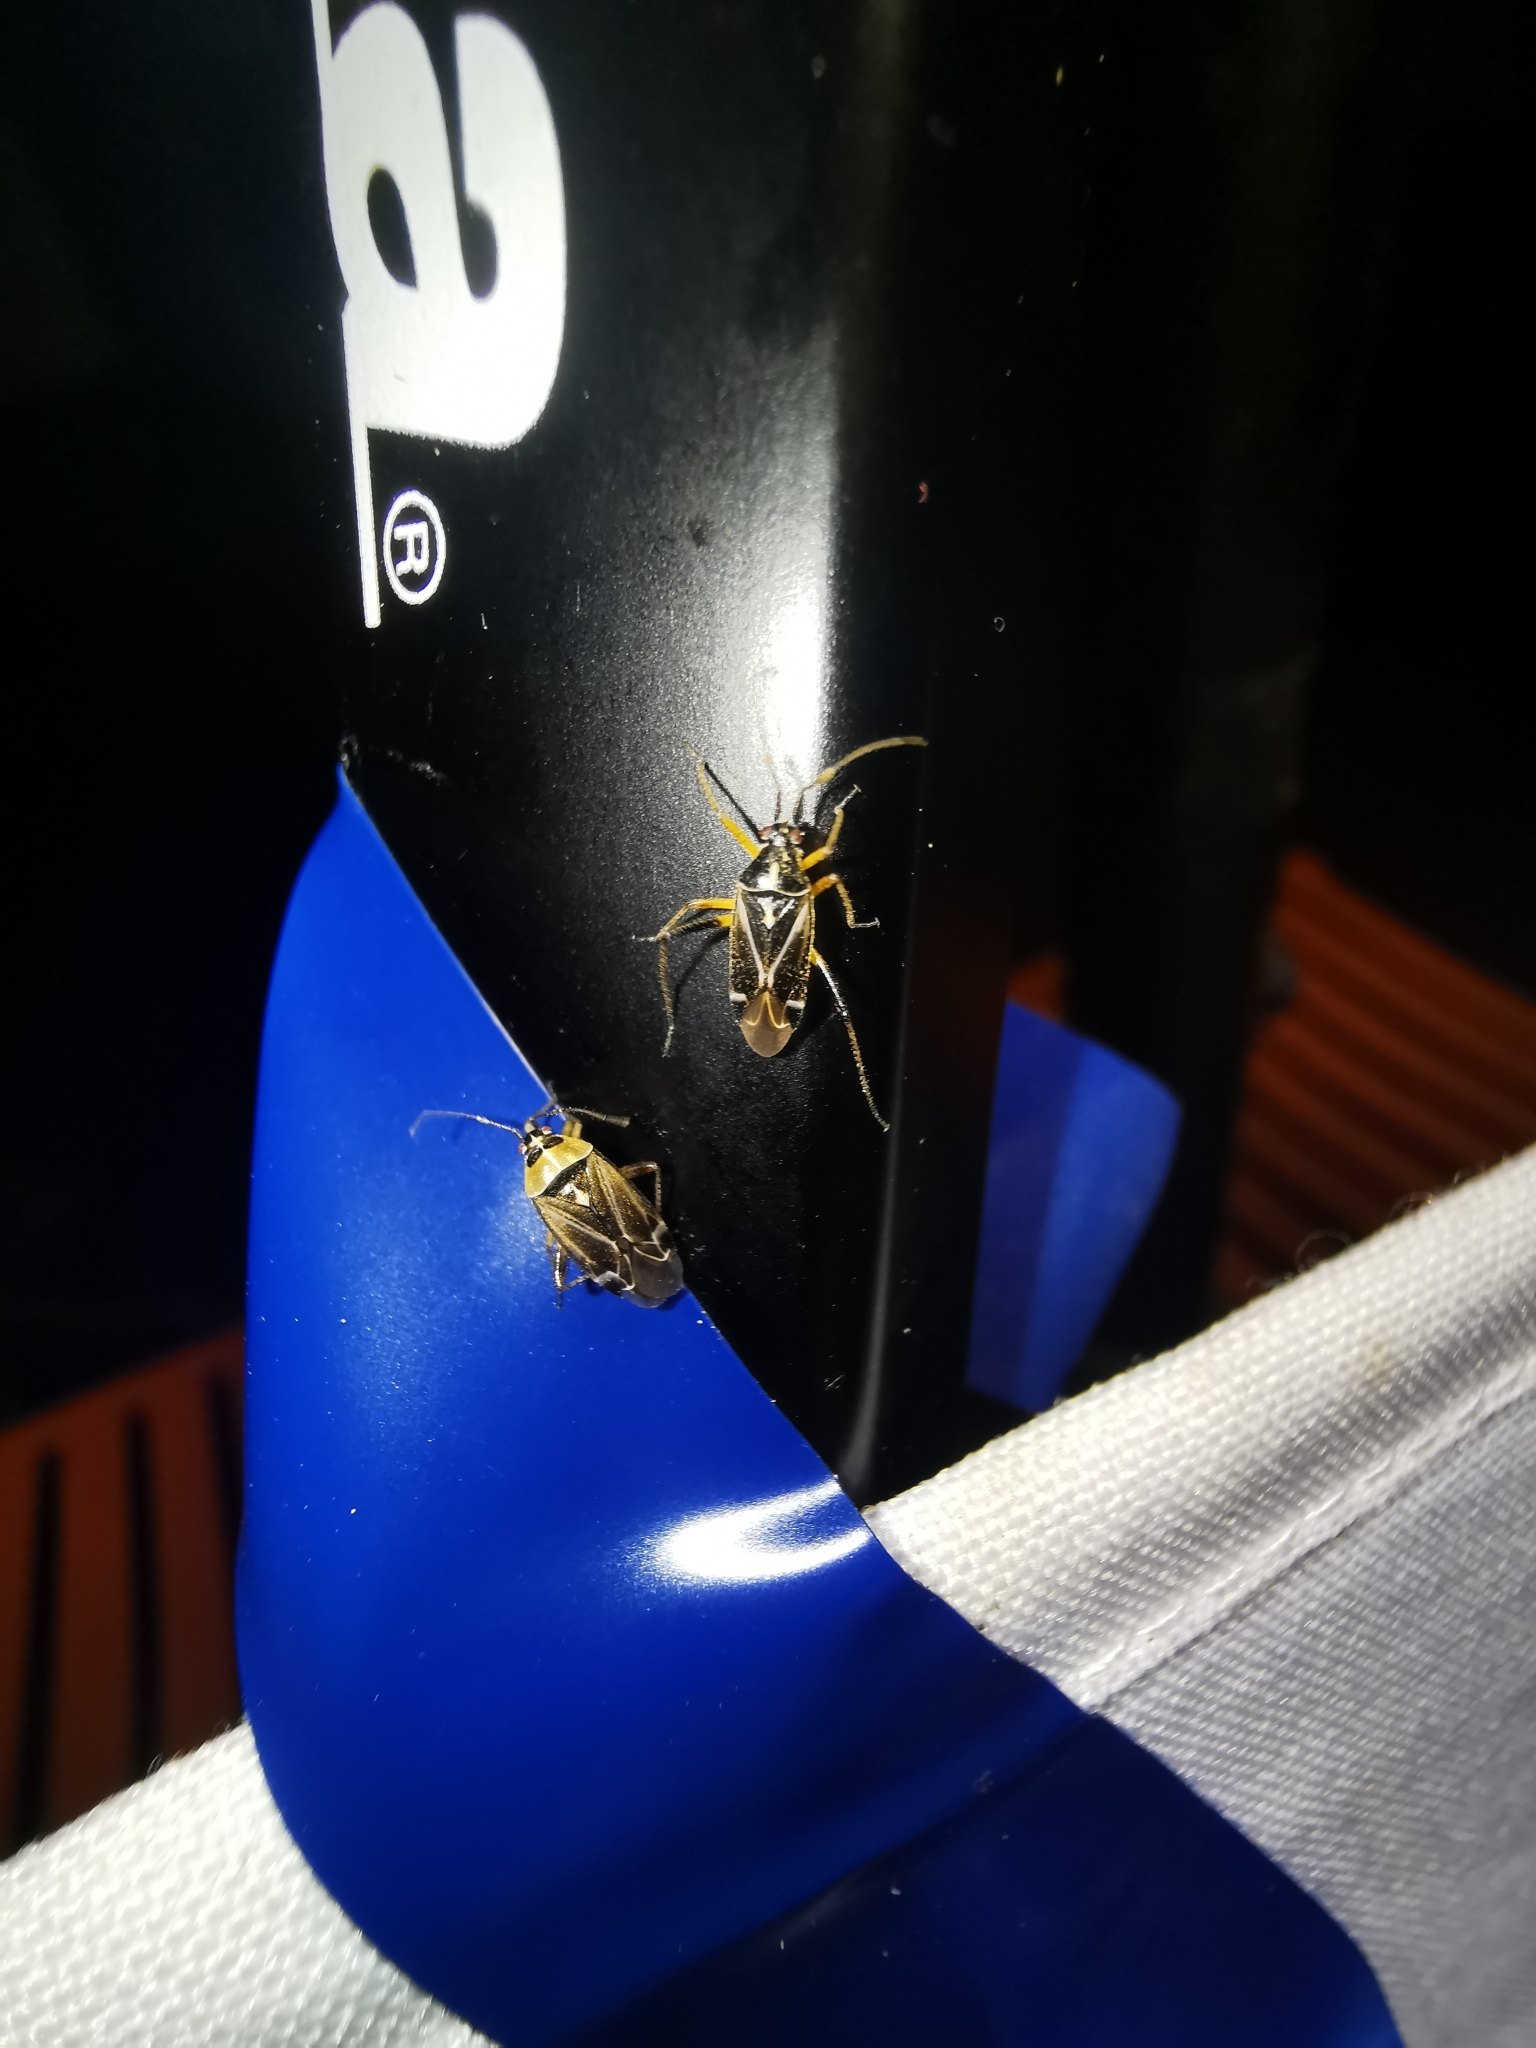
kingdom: Animalia
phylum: Arthropoda
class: Insecta
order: Hemiptera
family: Miridae
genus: Harpocera
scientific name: Harpocera thoracica
